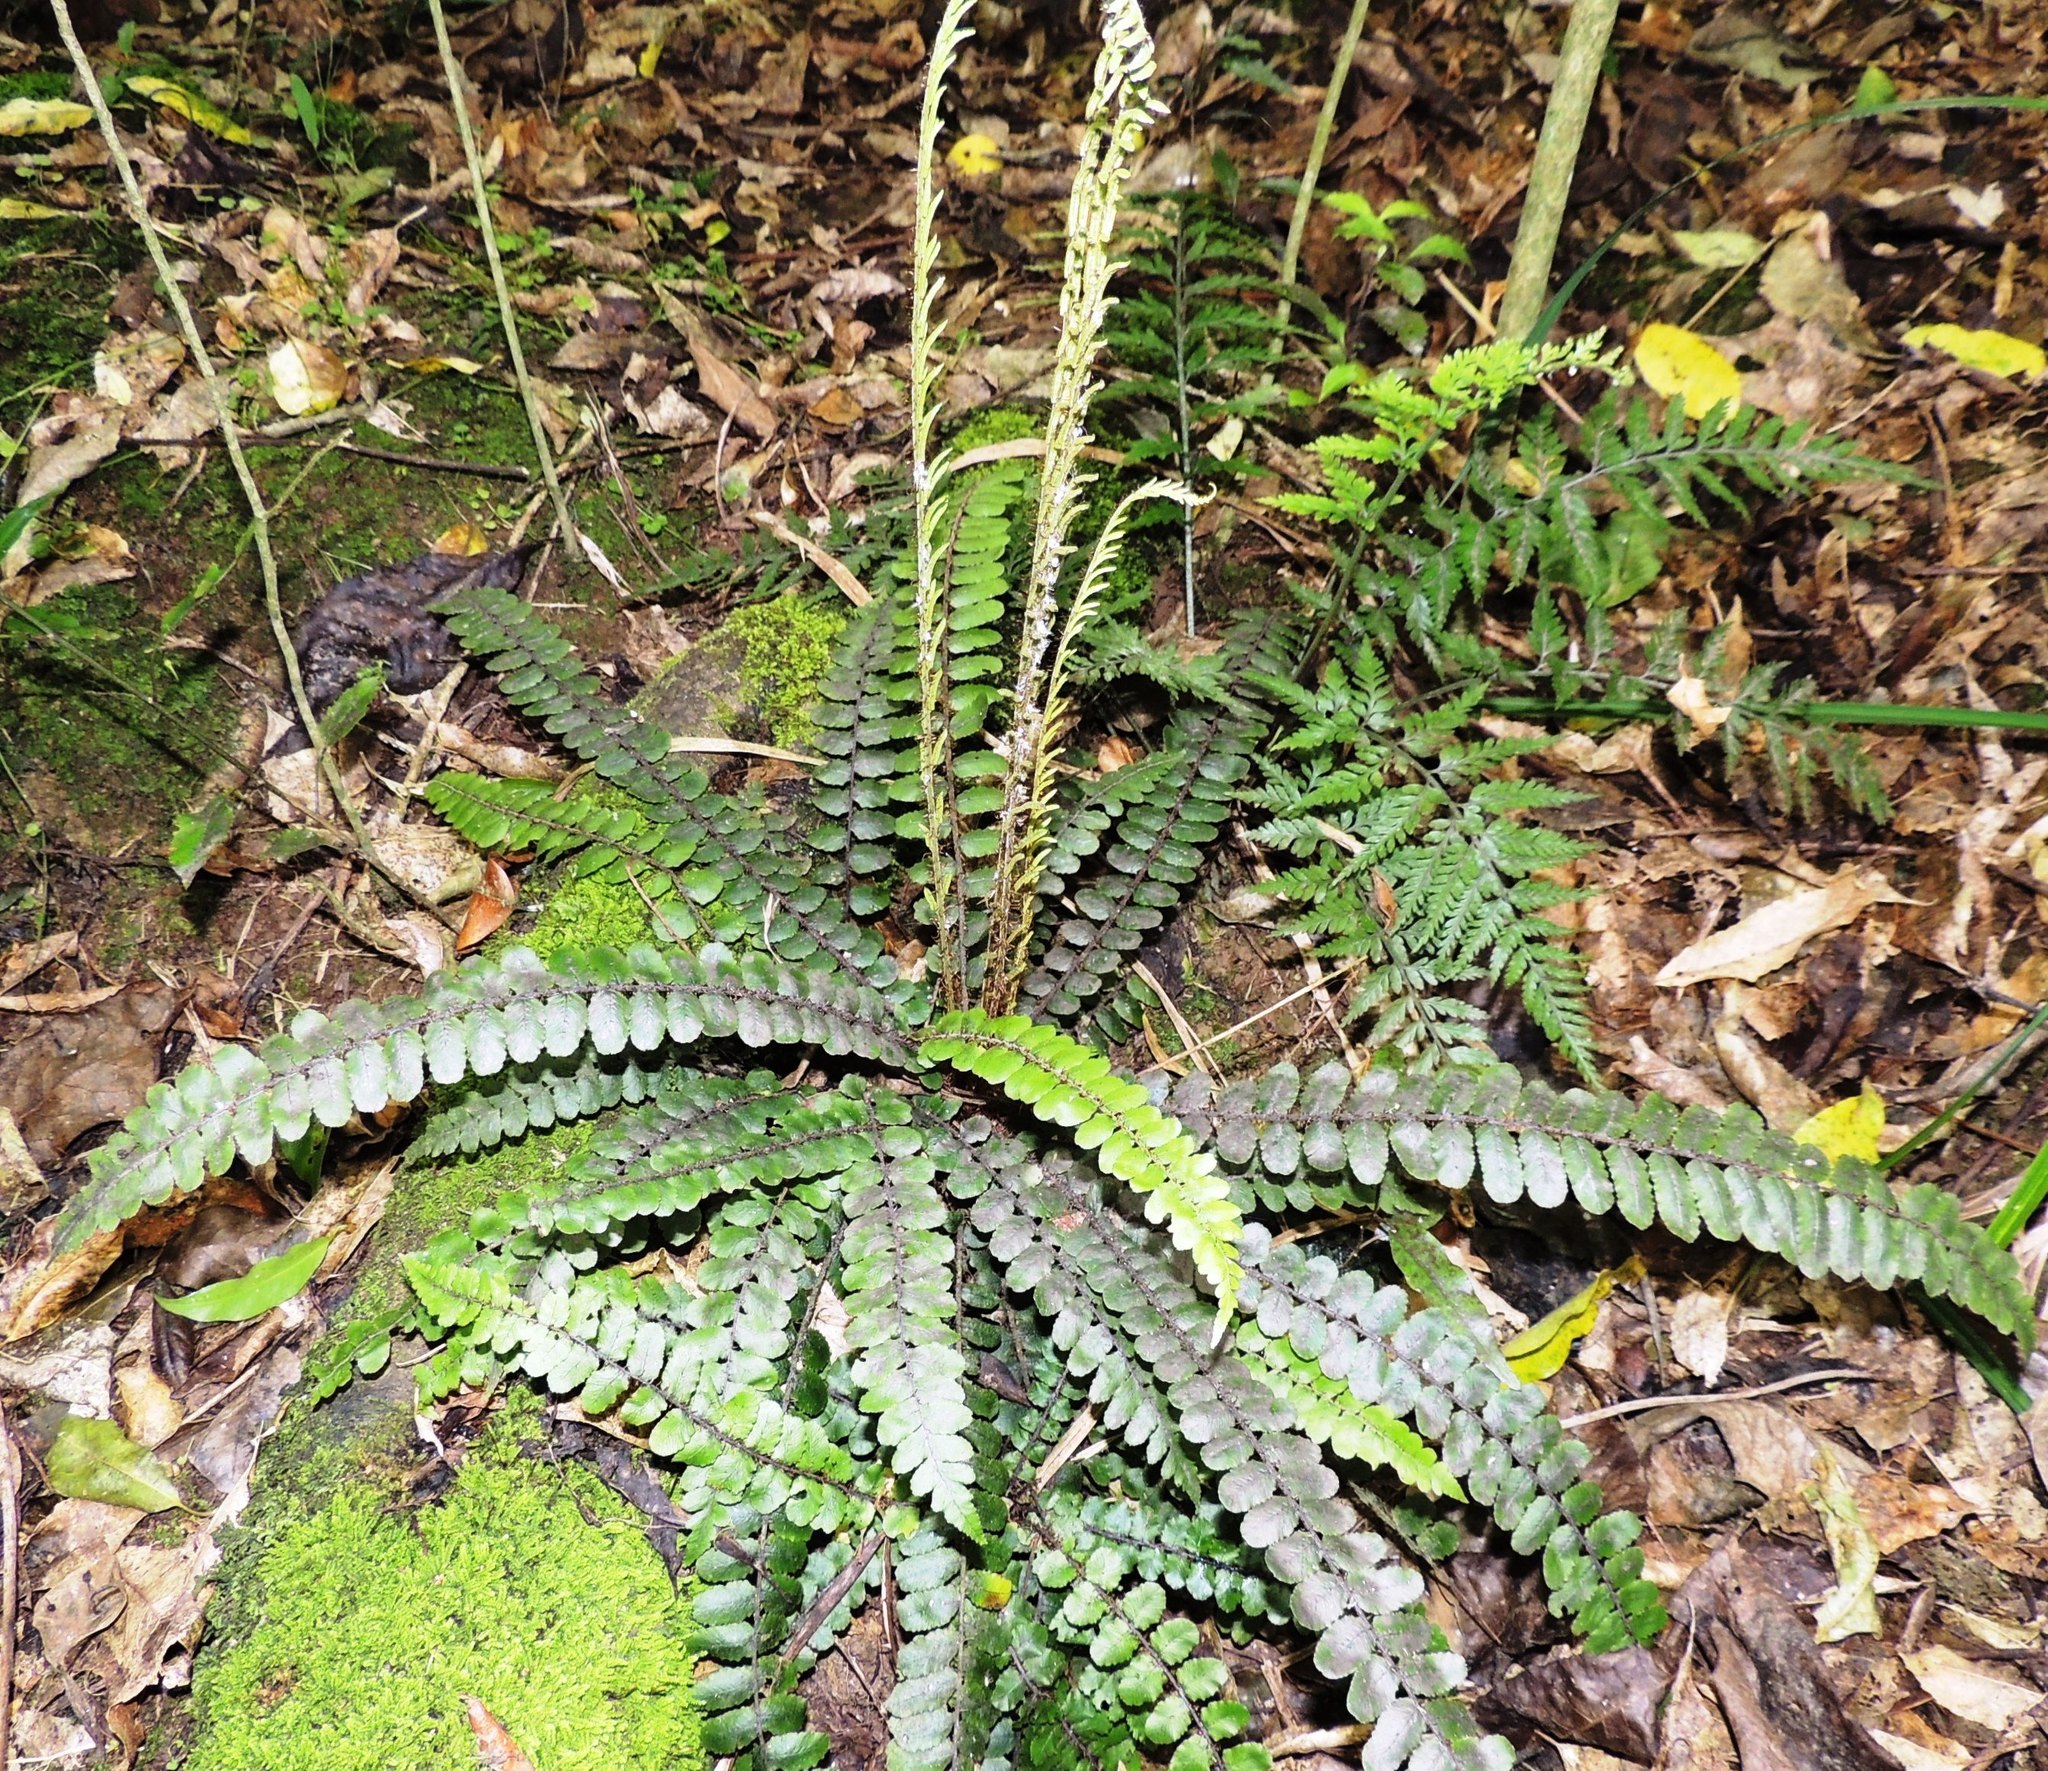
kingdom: Plantae
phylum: Tracheophyta
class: Polypodiopsida
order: Polypodiales
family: Blechnaceae
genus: Cranfillia
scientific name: Cranfillia fluviatilis
